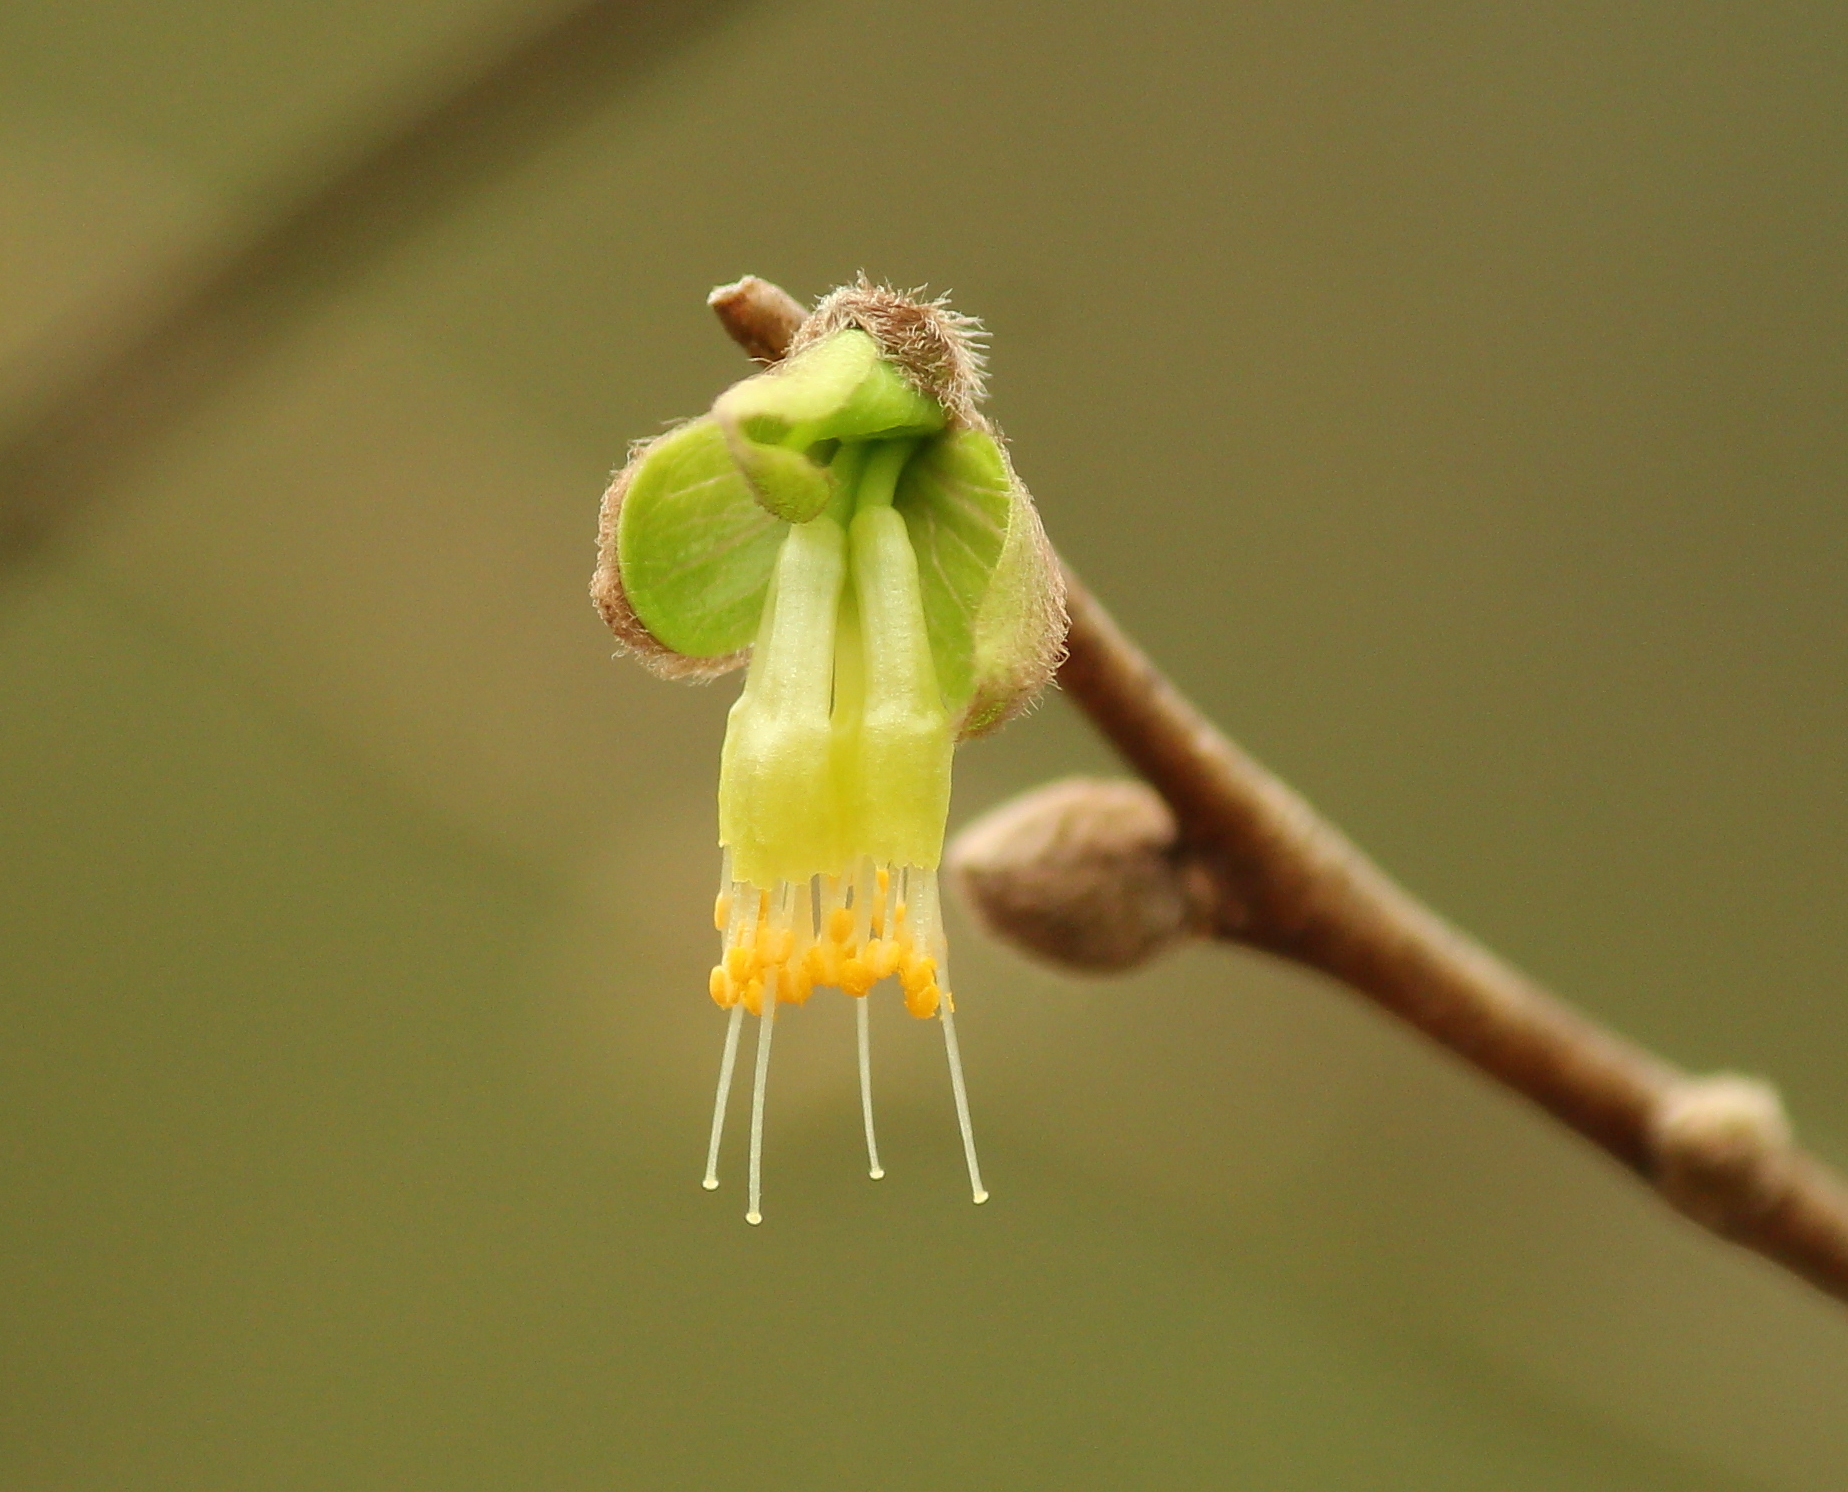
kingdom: Plantae
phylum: Tracheophyta
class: Magnoliopsida
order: Malvales
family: Thymelaeaceae
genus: Dirca
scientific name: Dirca palustris
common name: Leatherwood
